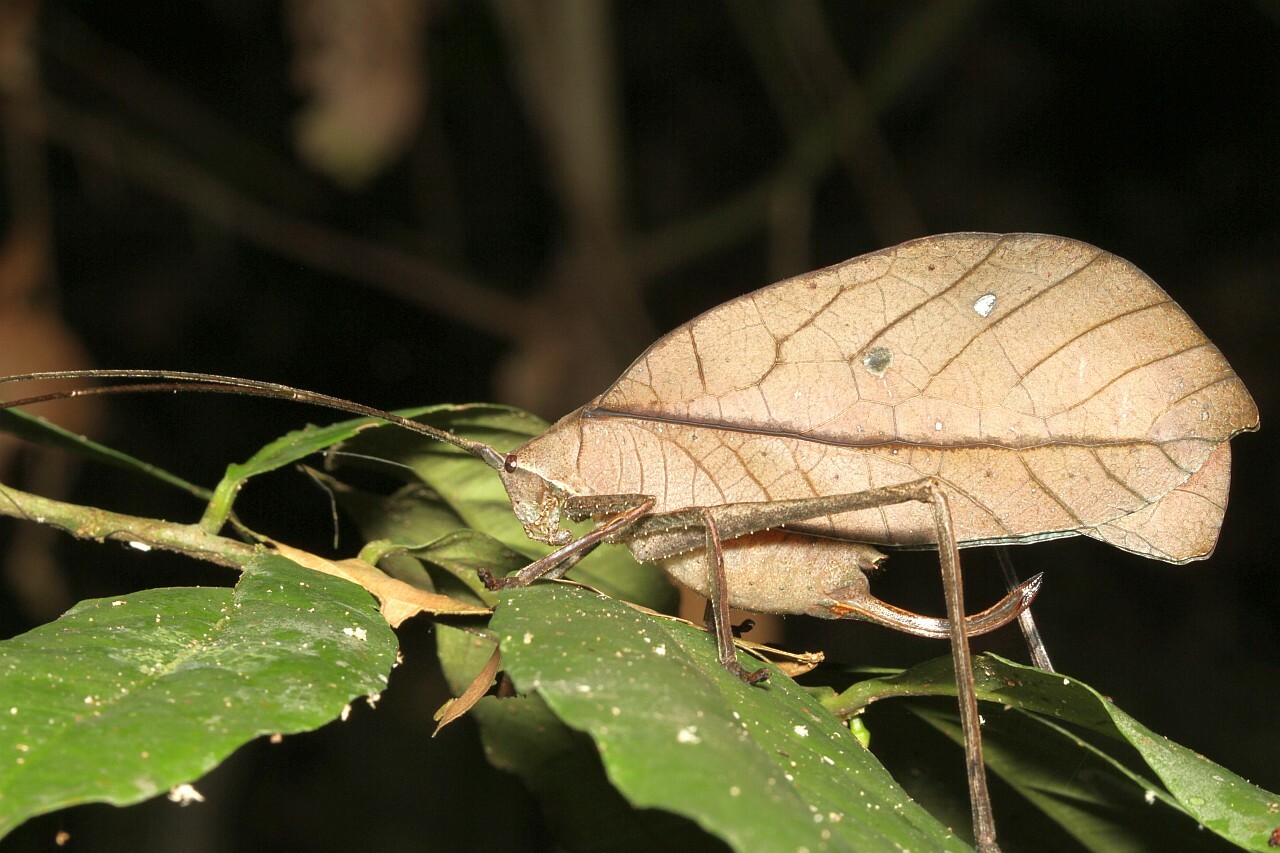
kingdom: Animalia
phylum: Arthropoda
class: Insecta
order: Orthoptera
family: Tettigoniidae
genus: Pterochroza
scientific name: Pterochroza ocellata
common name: Peacock katydid
